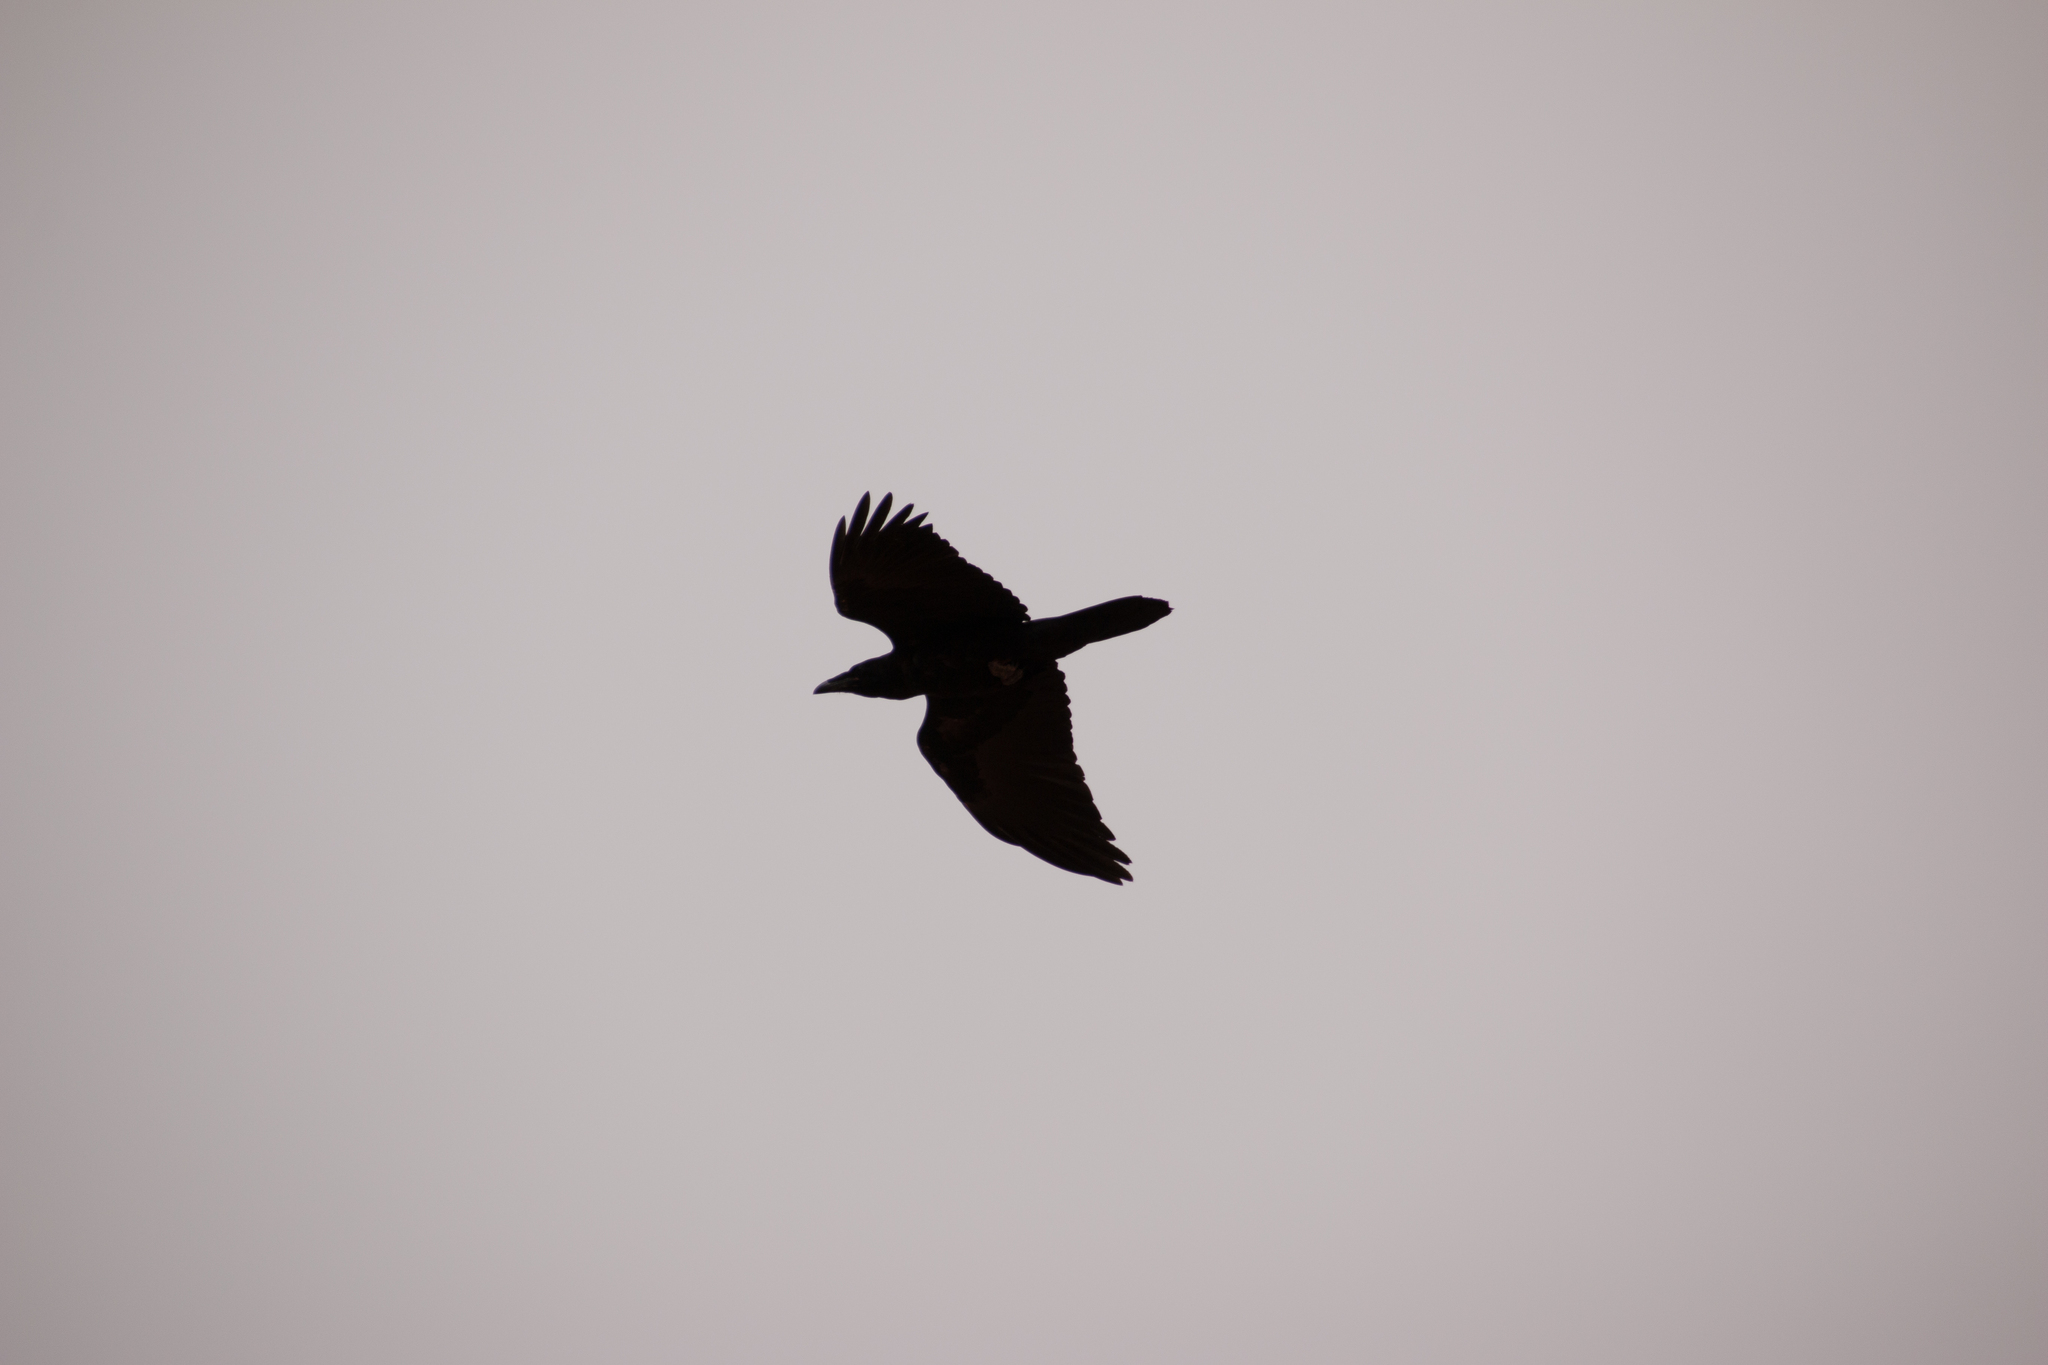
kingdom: Animalia
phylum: Chordata
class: Aves
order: Passeriformes
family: Corvidae
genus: Corvus
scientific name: Corvus corax
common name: Common raven
